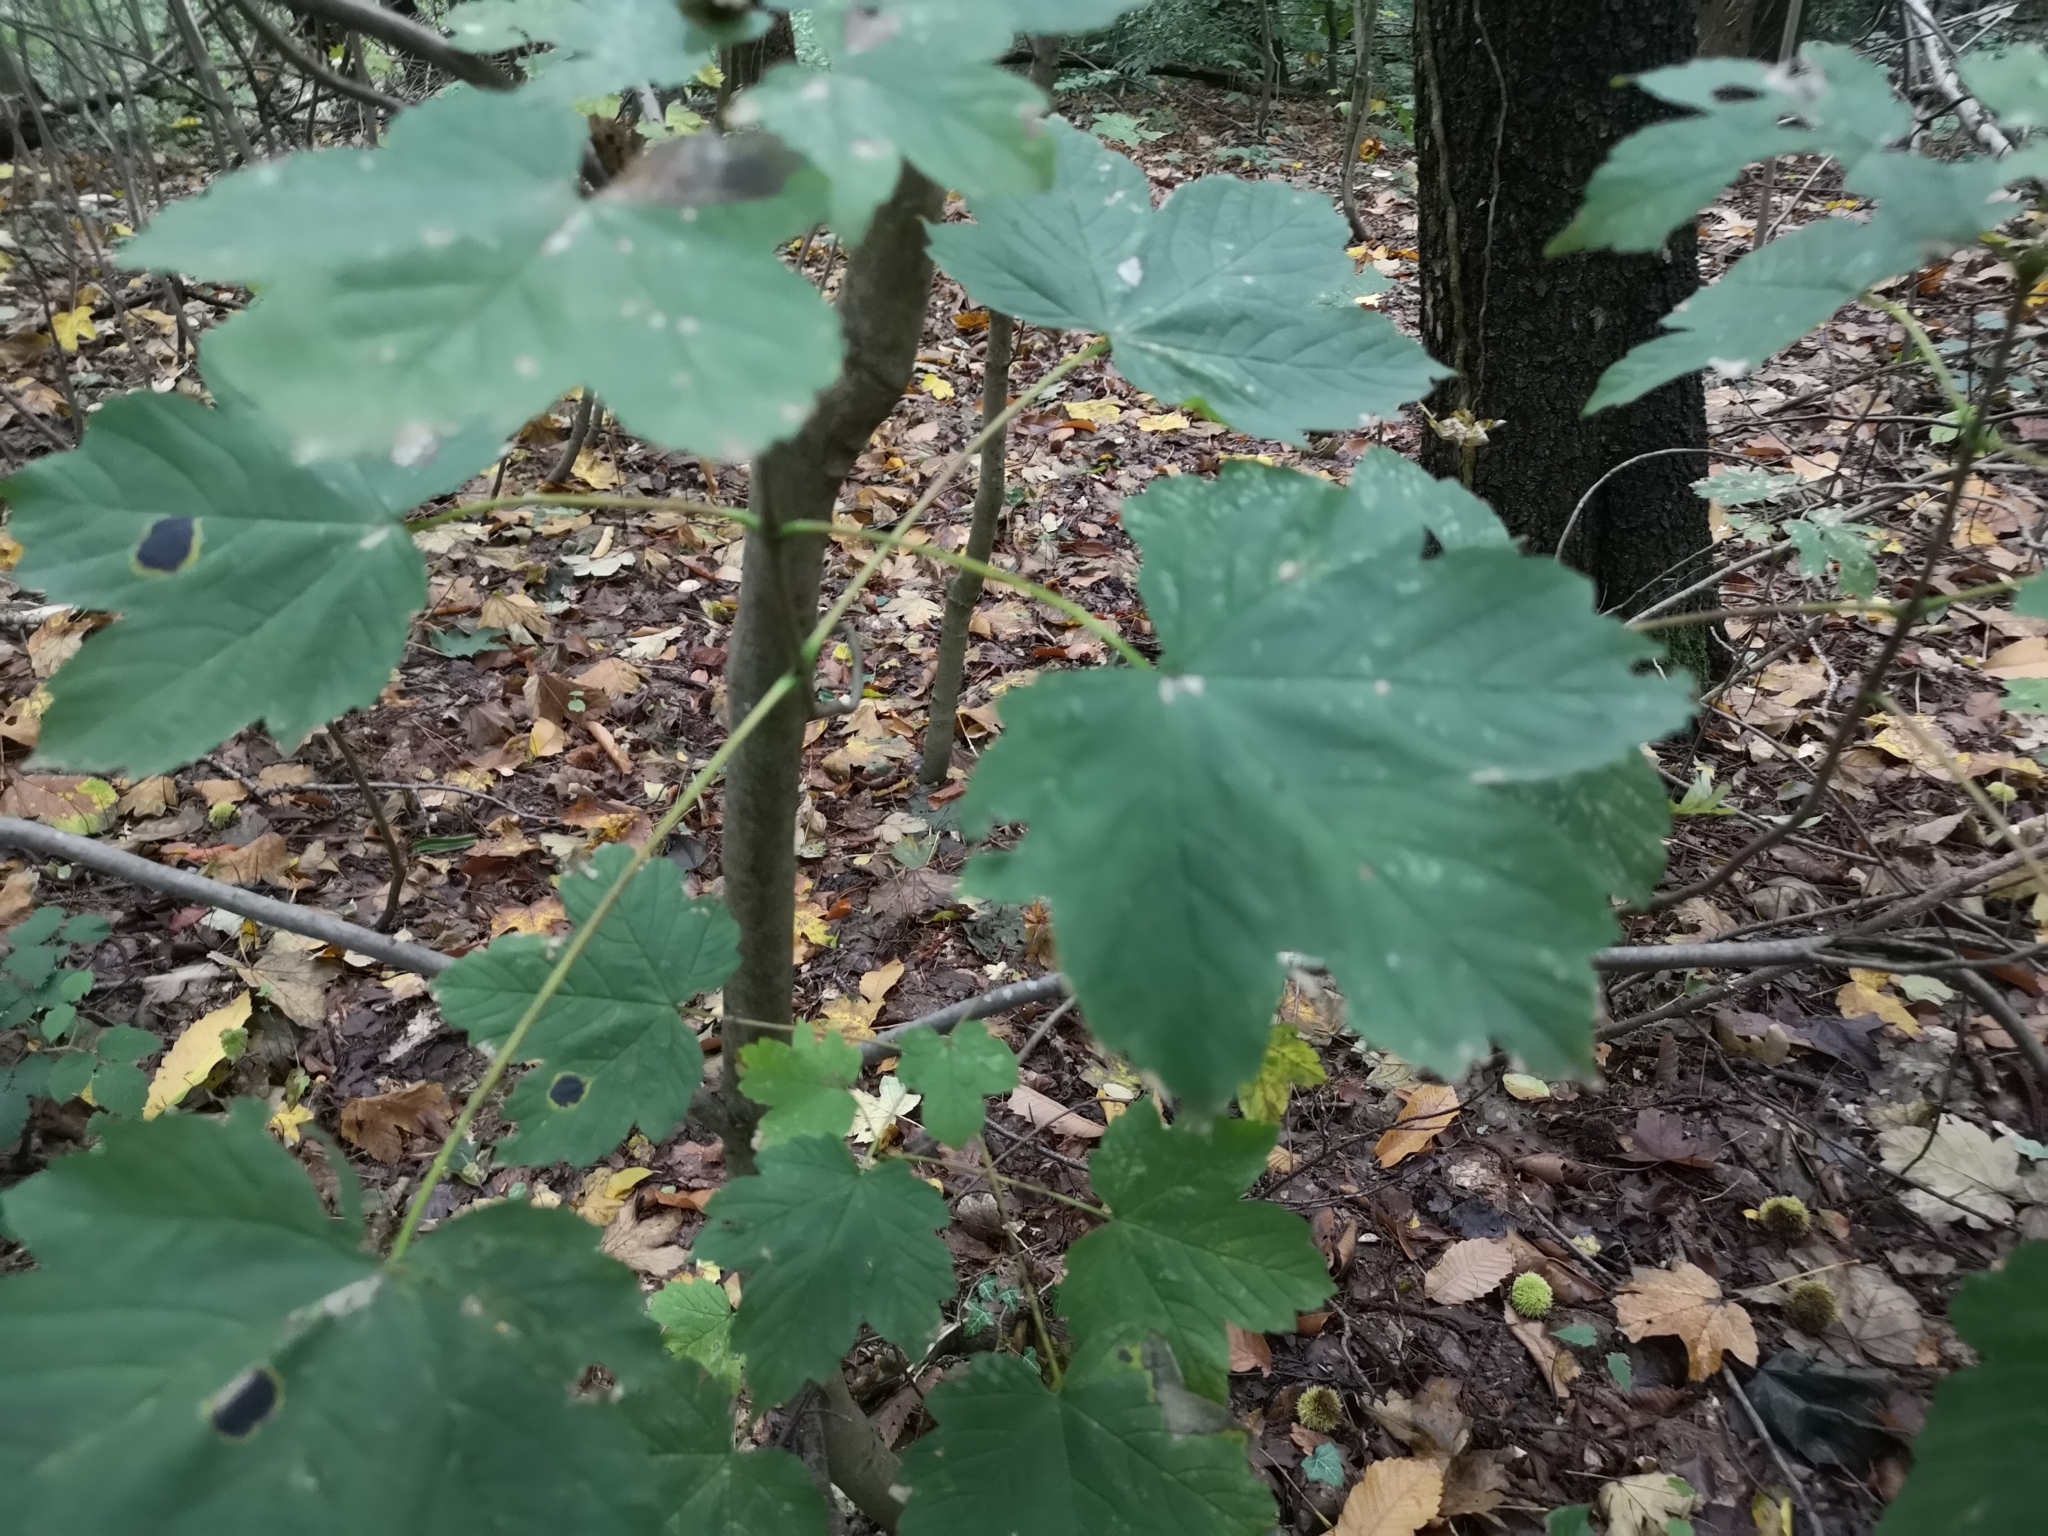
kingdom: Plantae
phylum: Tracheophyta
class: Magnoliopsida
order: Sapindales
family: Sapindaceae
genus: Acer
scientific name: Acer pseudoplatanus
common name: Sycamore
